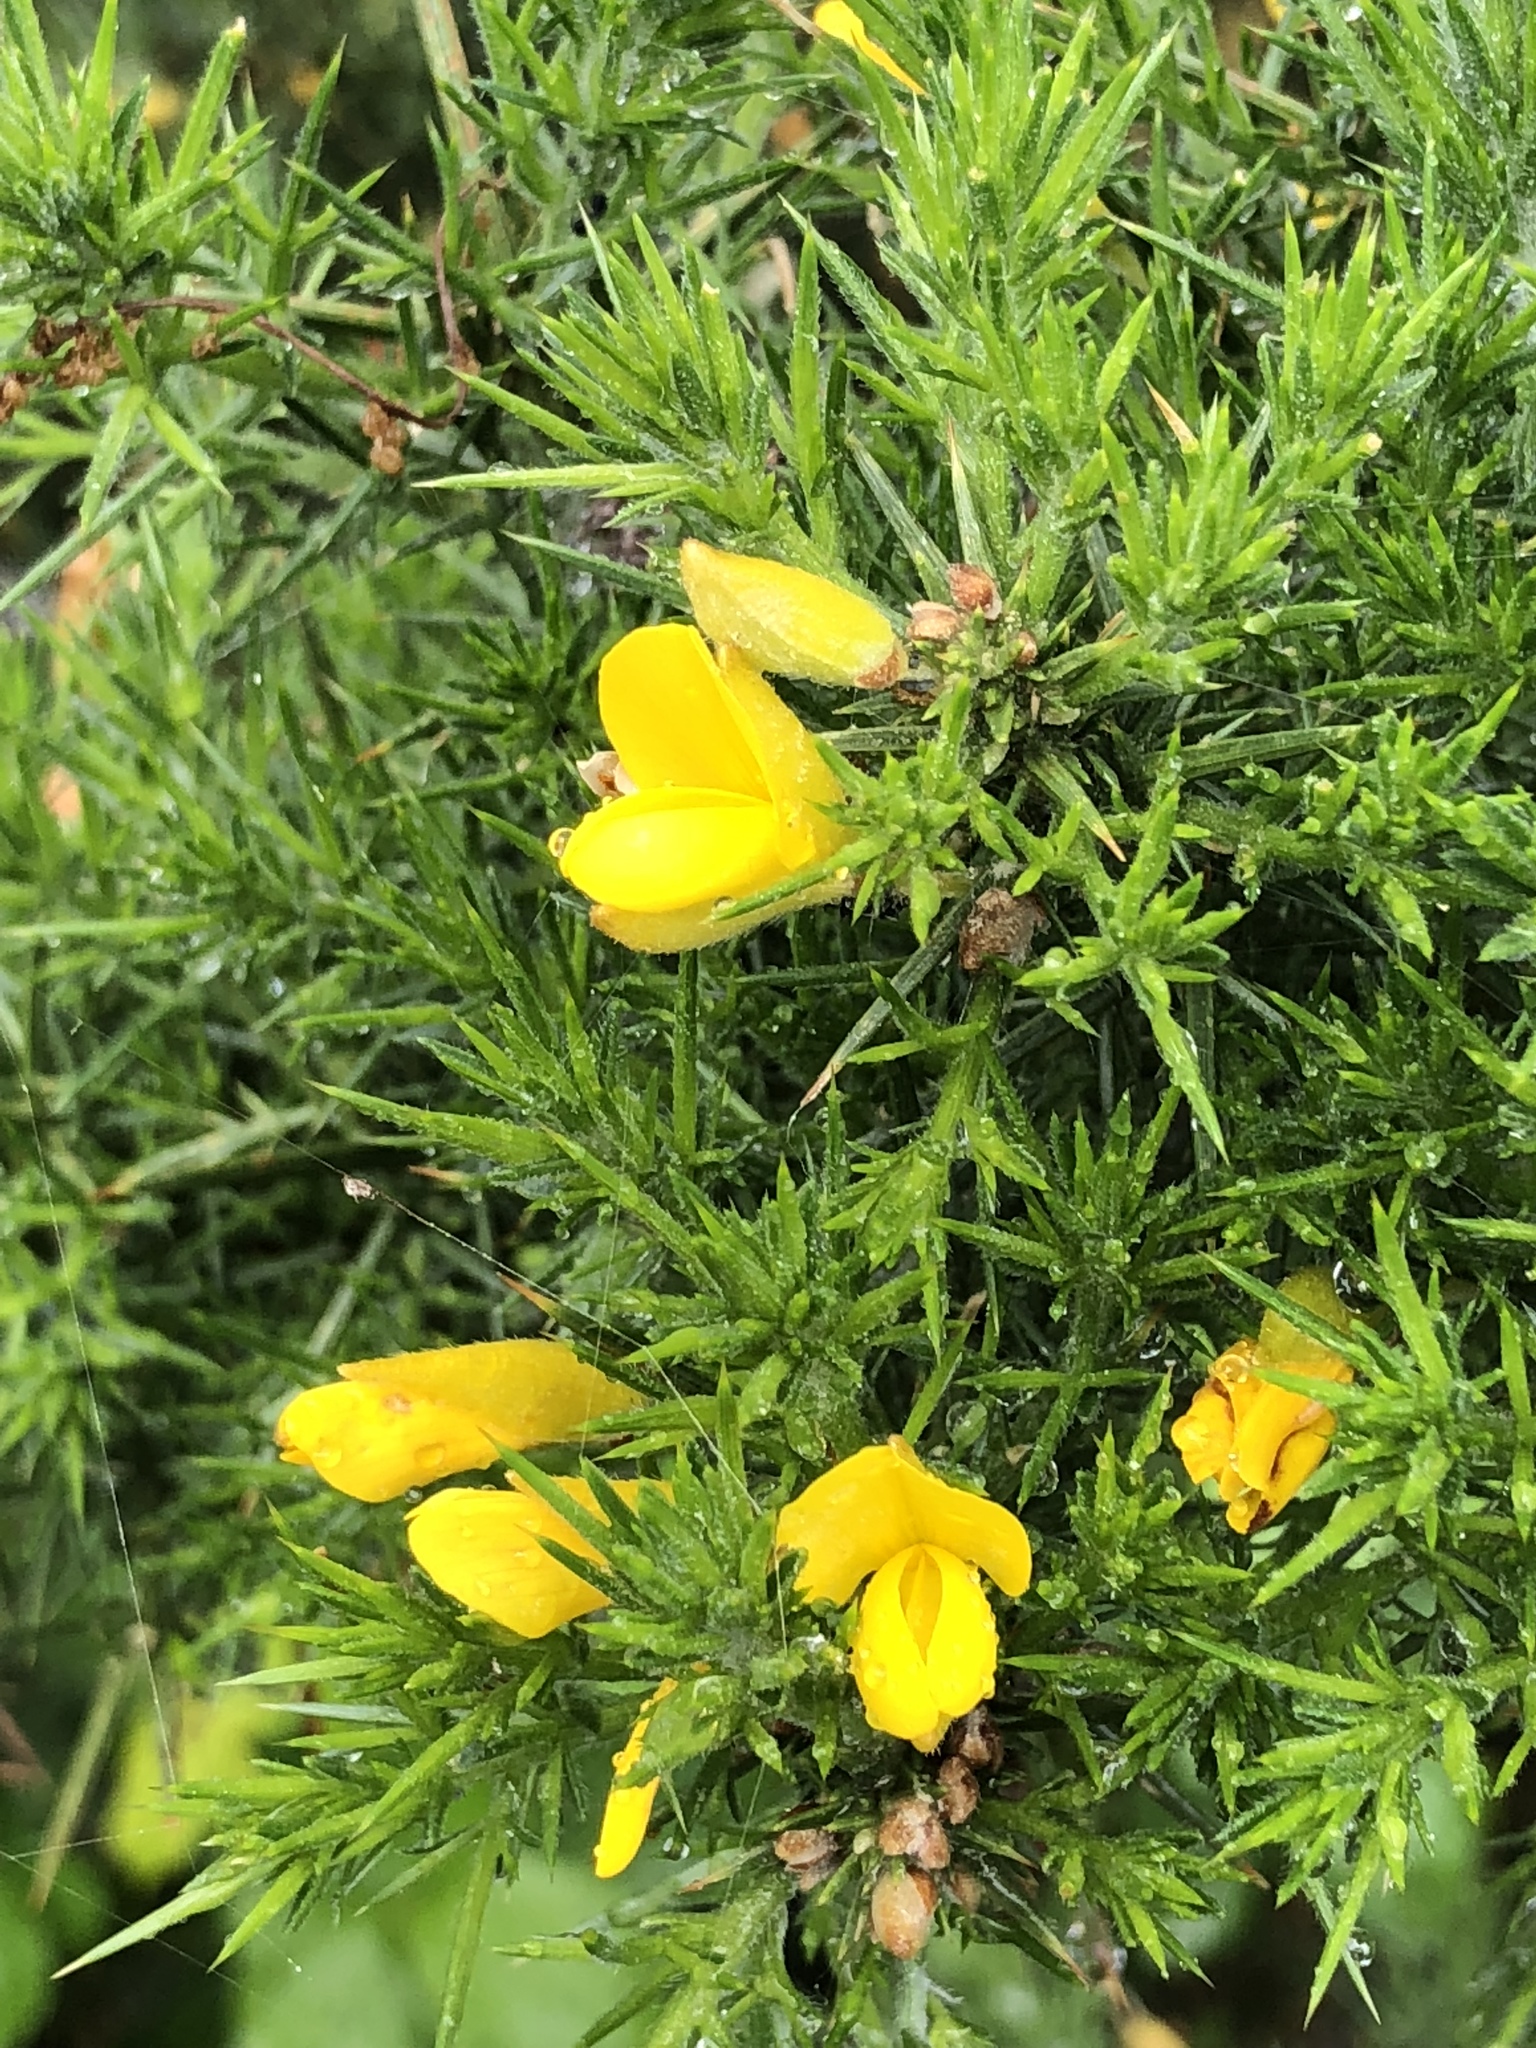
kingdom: Plantae
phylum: Tracheophyta
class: Magnoliopsida
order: Fabales
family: Fabaceae
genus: Ulex
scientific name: Ulex europaeus
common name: Common gorse
